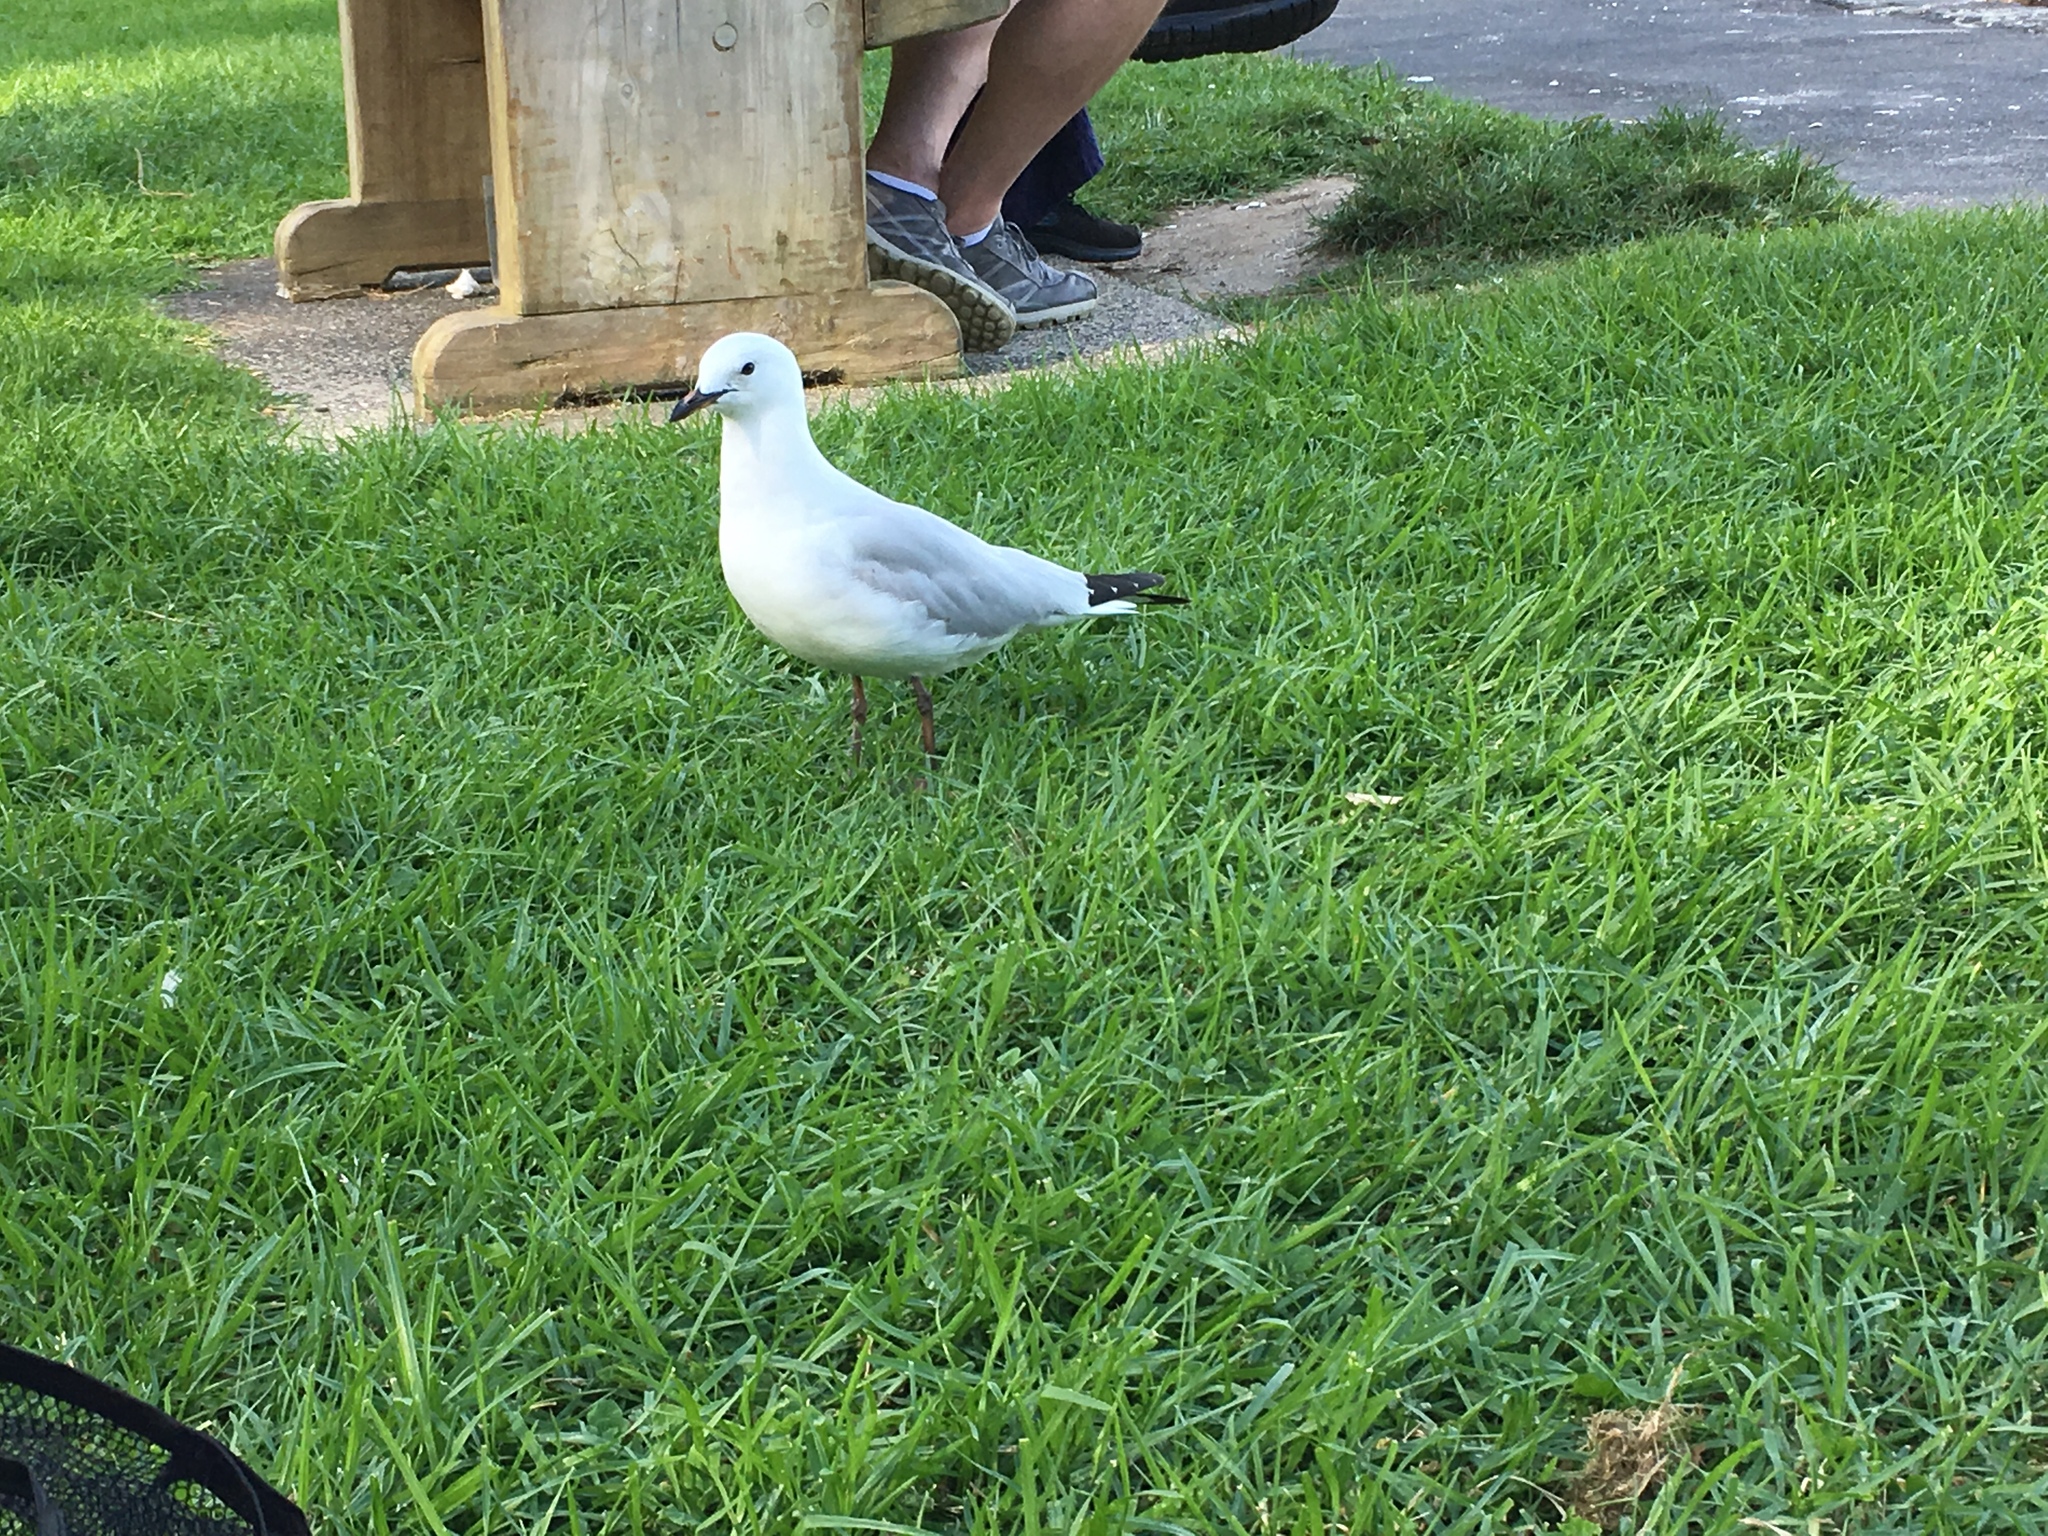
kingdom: Animalia
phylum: Chordata
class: Aves
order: Charadriiformes
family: Laridae
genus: Chroicocephalus
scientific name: Chroicocephalus novaehollandiae
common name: Silver gull
